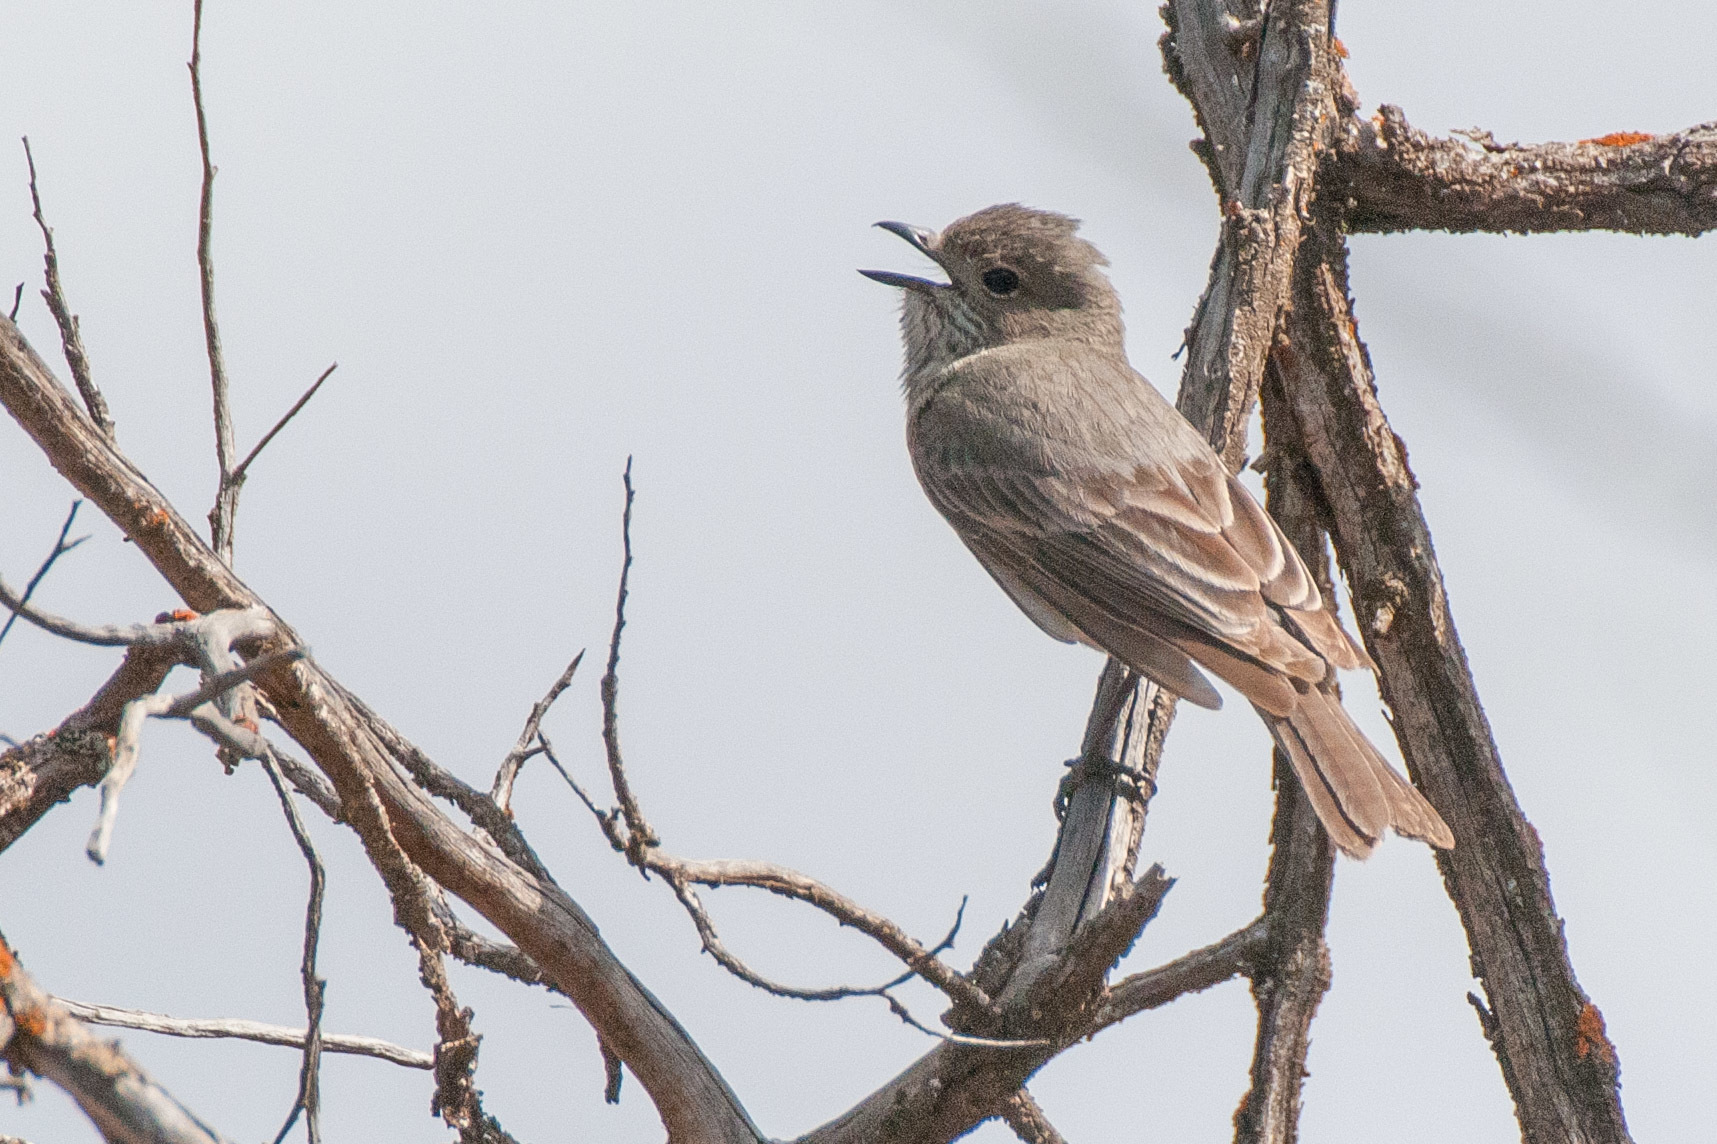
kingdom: Animalia
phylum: Chordata
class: Aves
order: Passeriformes
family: Pachycephalidae
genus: Pachycephala
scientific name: Pachycephala rufiventris
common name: Rufous whistler
